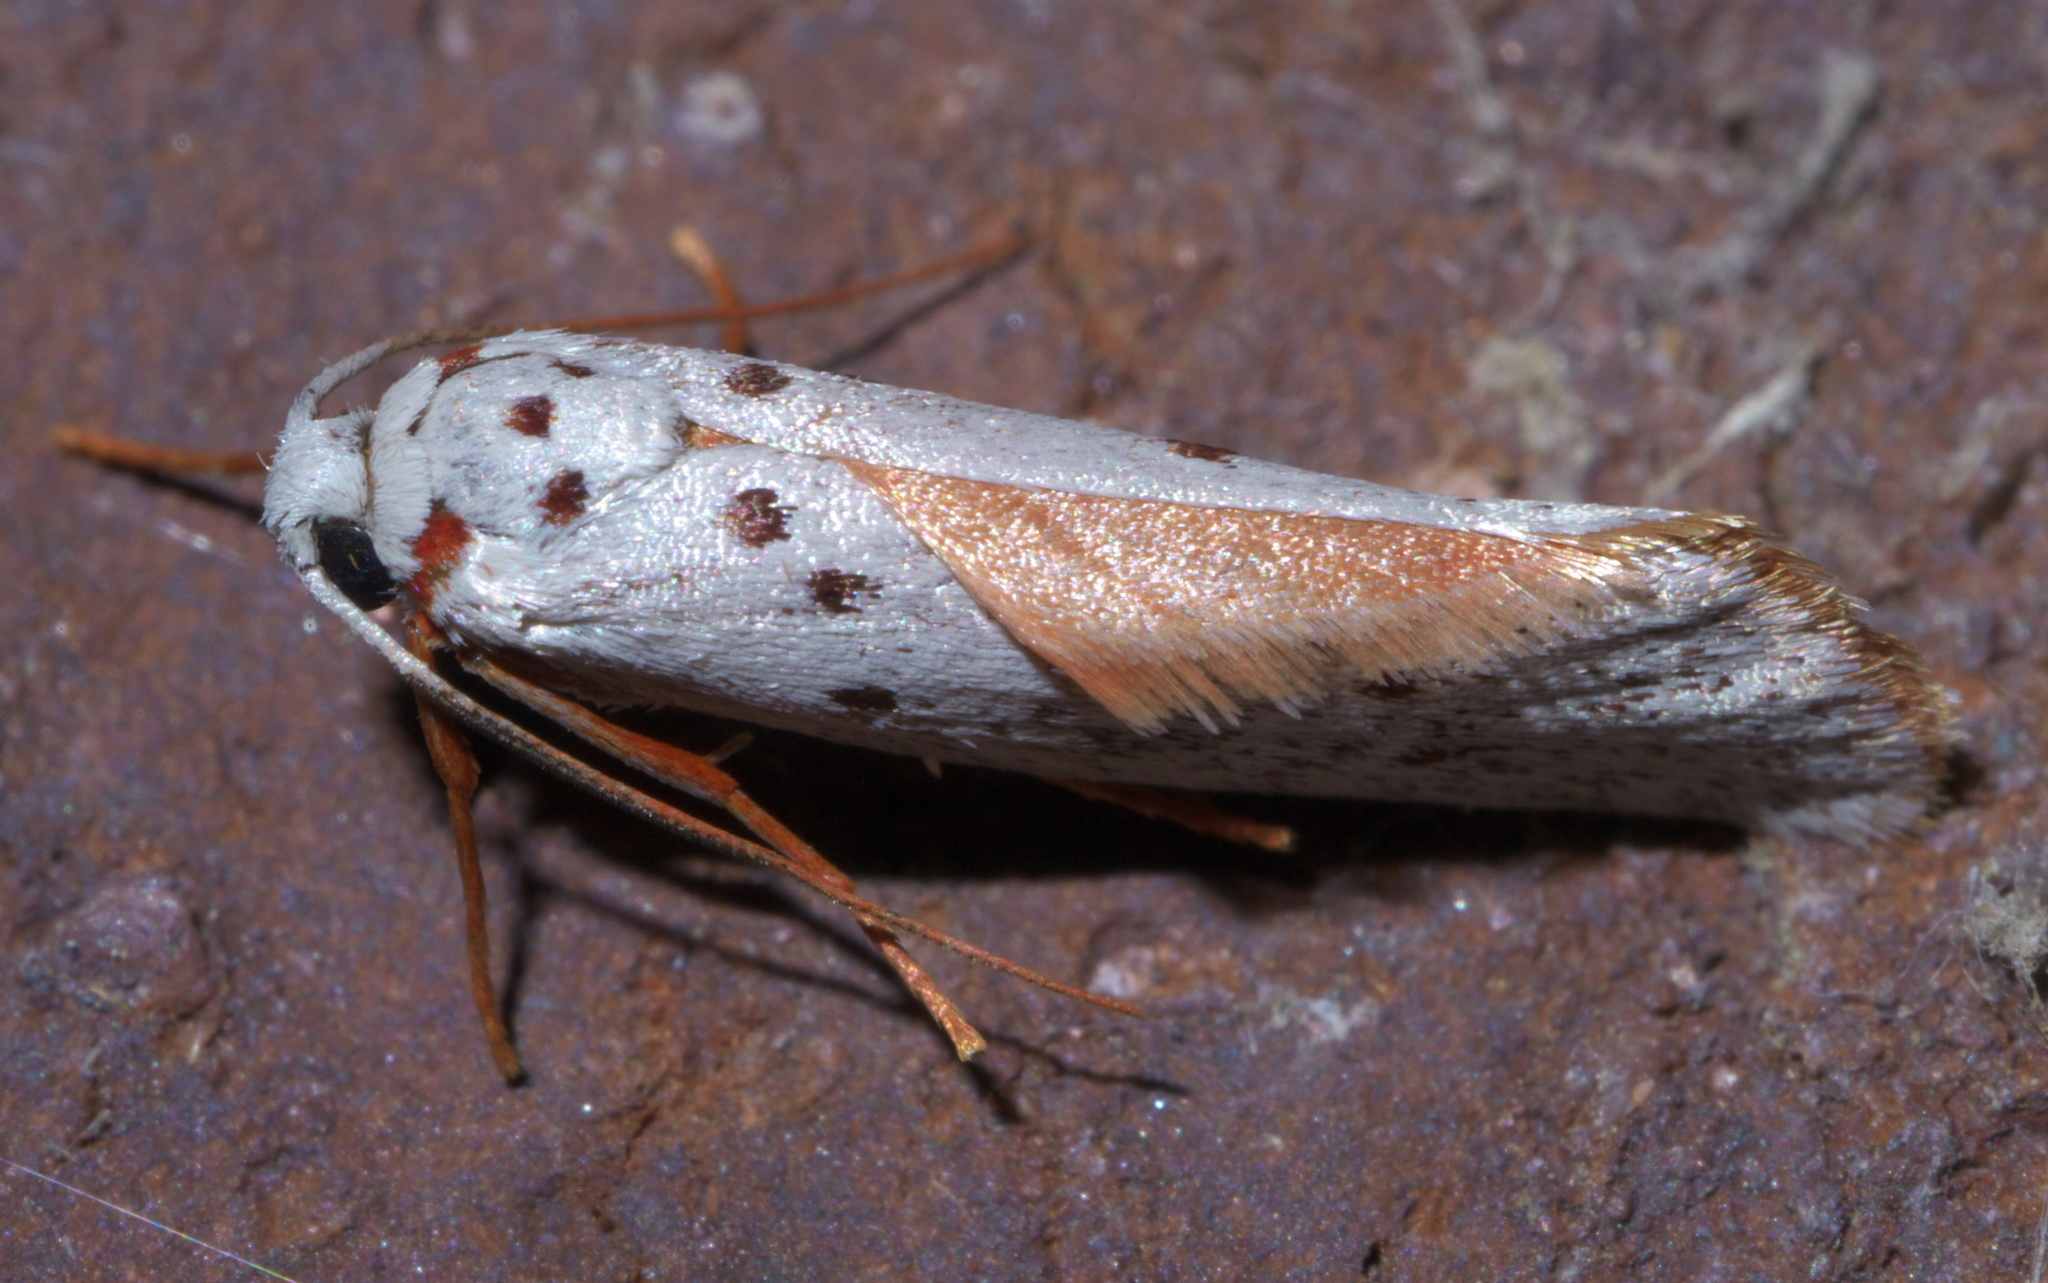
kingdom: Animalia
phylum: Arthropoda
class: Insecta
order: Lepidoptera
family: Lacturidae
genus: Lactura
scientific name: Lactura
